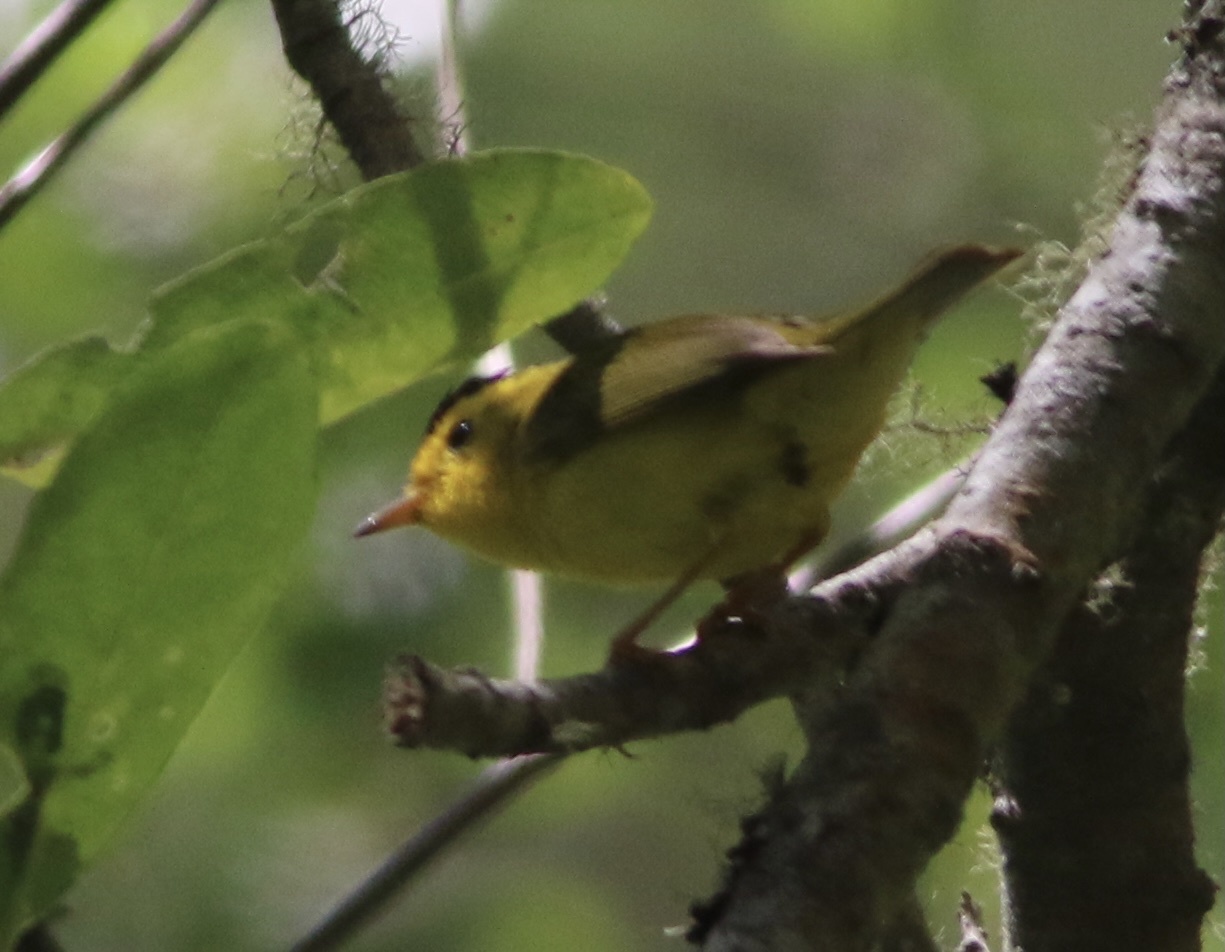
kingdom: Animalia
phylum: Chordata
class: Aves
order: Passeriformes
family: Parulidae
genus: Cardellina
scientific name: Cardellina pusilla
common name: Wilson's warbler
